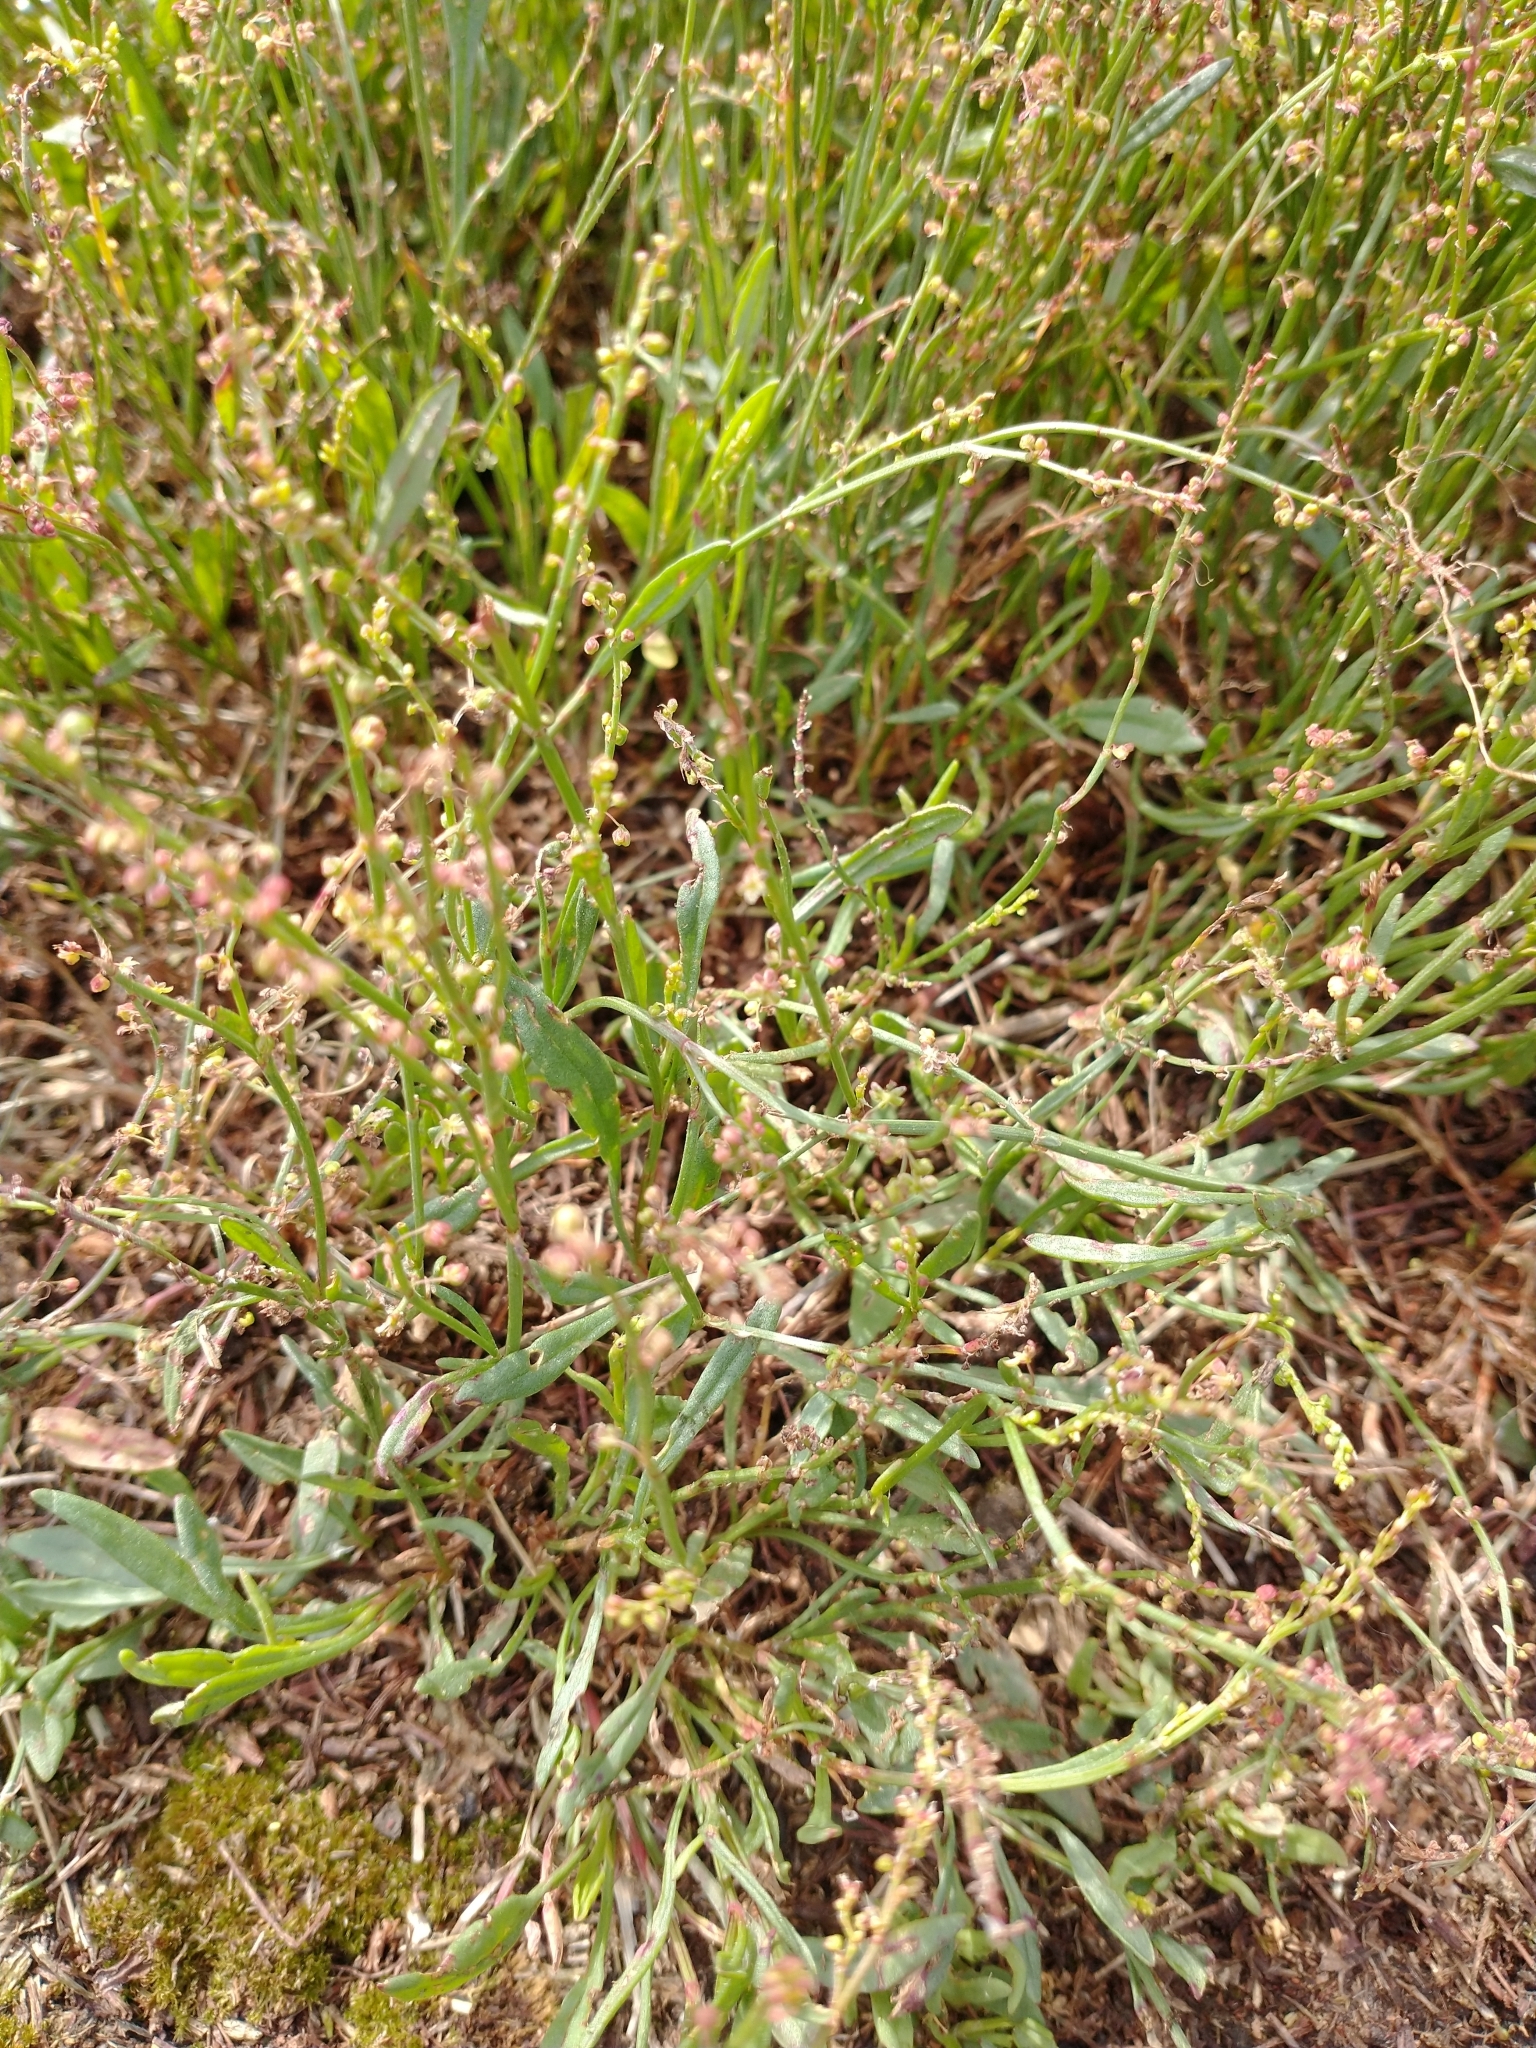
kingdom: Plantae
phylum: Tracheophyta
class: Magnoliopsida
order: Caryophyllales
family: Polygonaceae
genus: Rumex
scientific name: Rumex acetosella
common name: Common sheep sorrel
